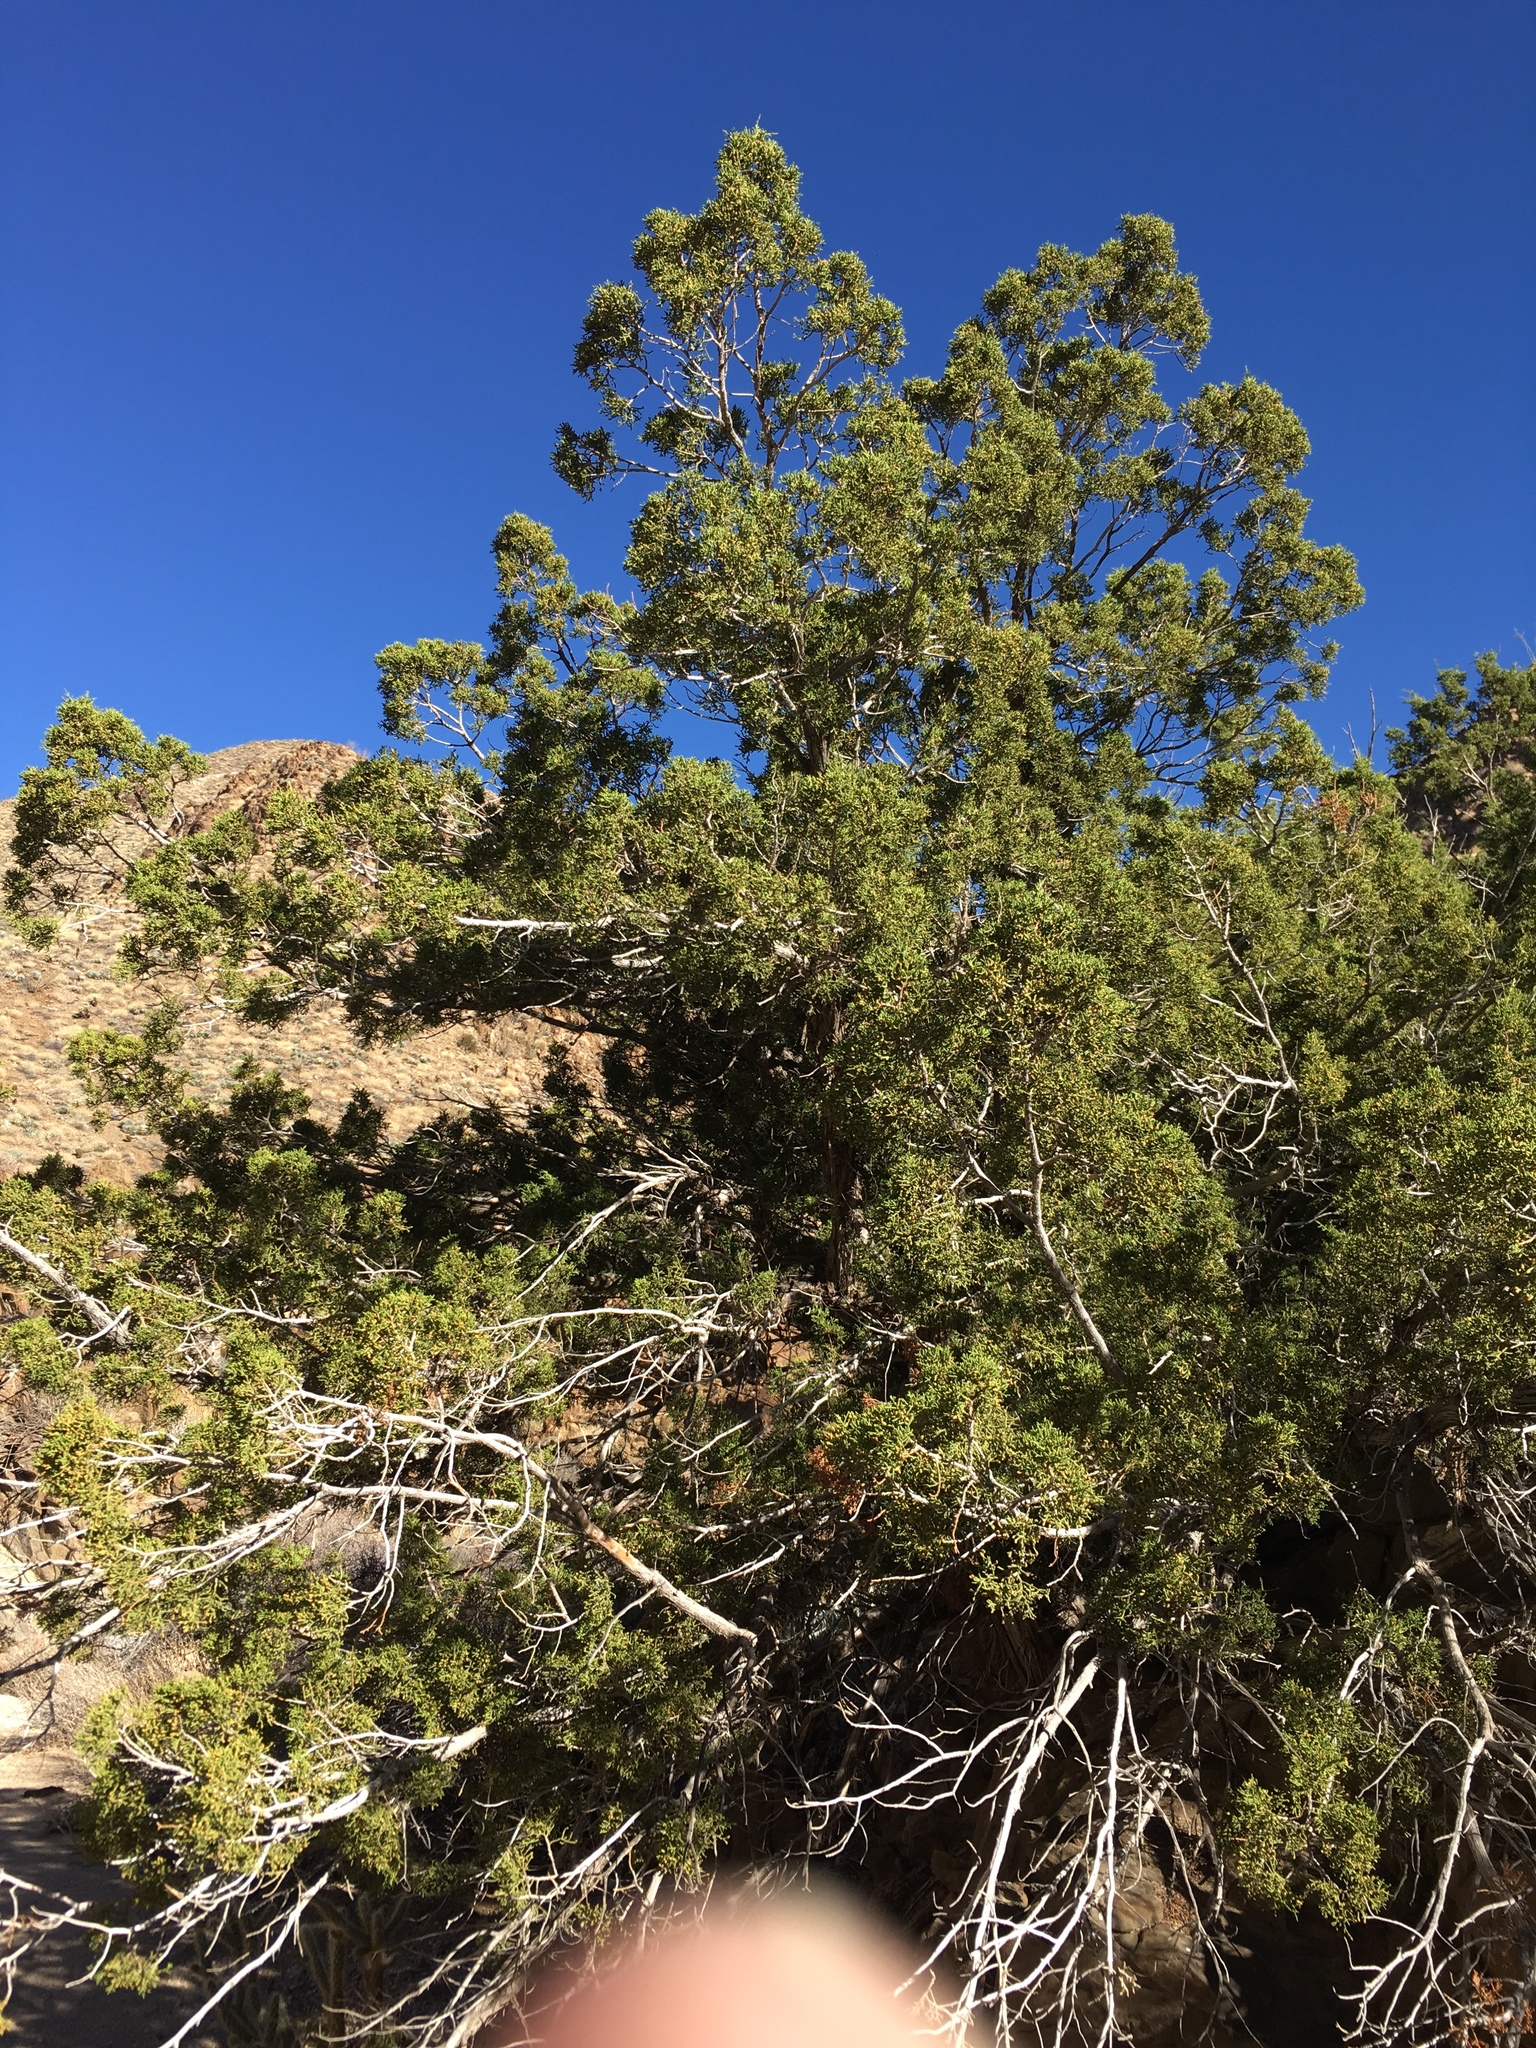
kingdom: Plantae
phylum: Tracheophyta
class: Pinopsida
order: Pinales
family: Cupressaceae
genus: Juniperus
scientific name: Juniperus californica
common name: California juniper
